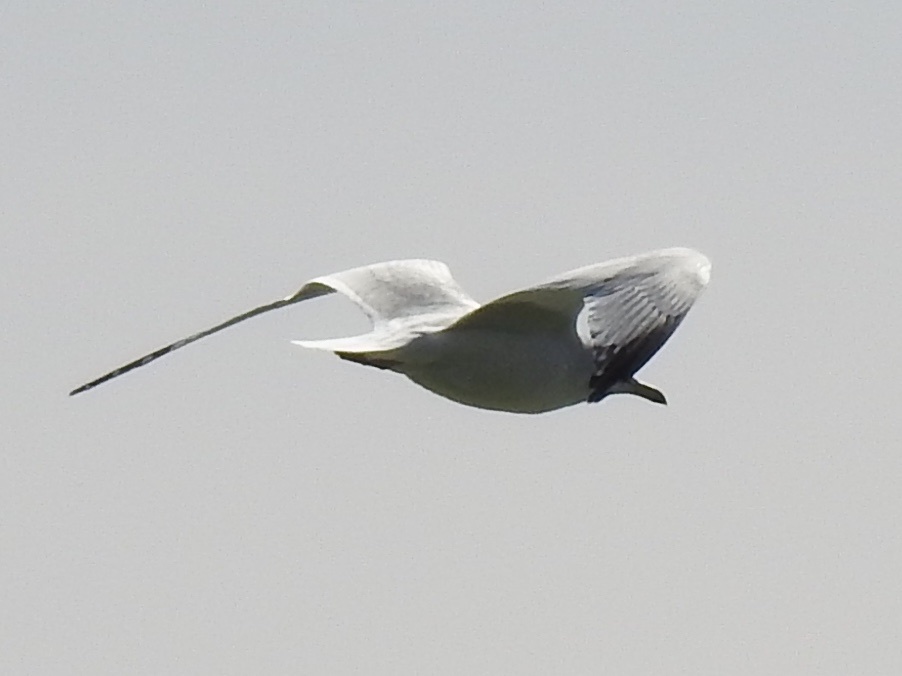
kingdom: Animalia
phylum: Chordata
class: Aves
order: Charadriiformes
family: Laridae
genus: Larus
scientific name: Larus delawarensis
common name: Ring-billed gull
